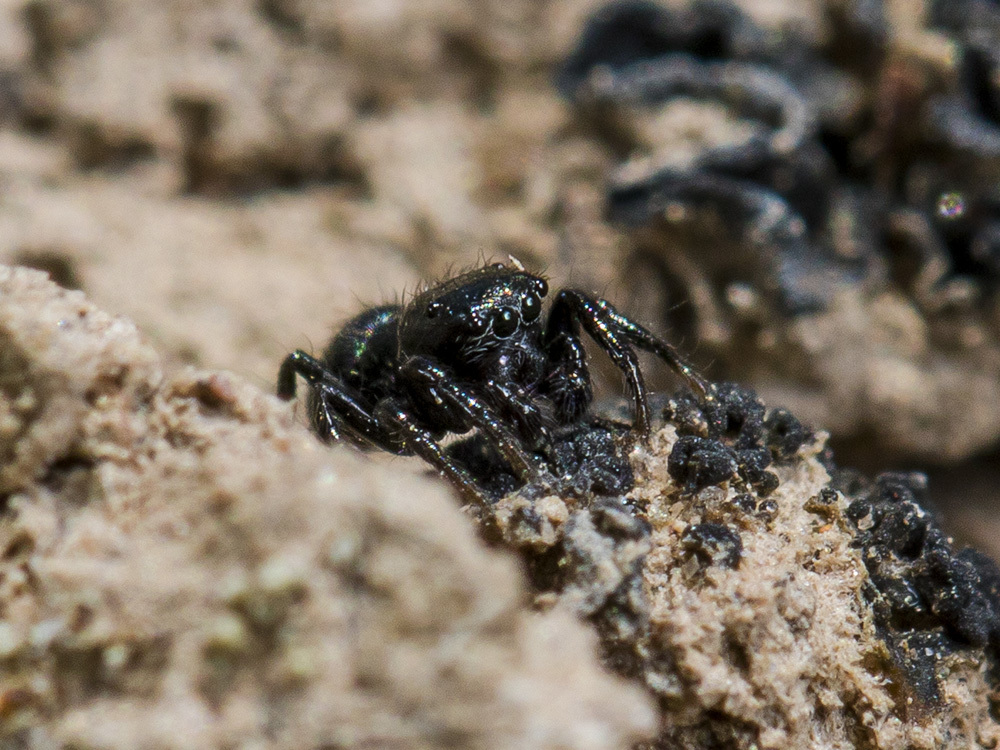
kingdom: Animalia
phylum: Arthropoda
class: Arachnida
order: Araneae
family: Salticidae
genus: Chalcoscirtus
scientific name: Chalcoscirtus nigritus
